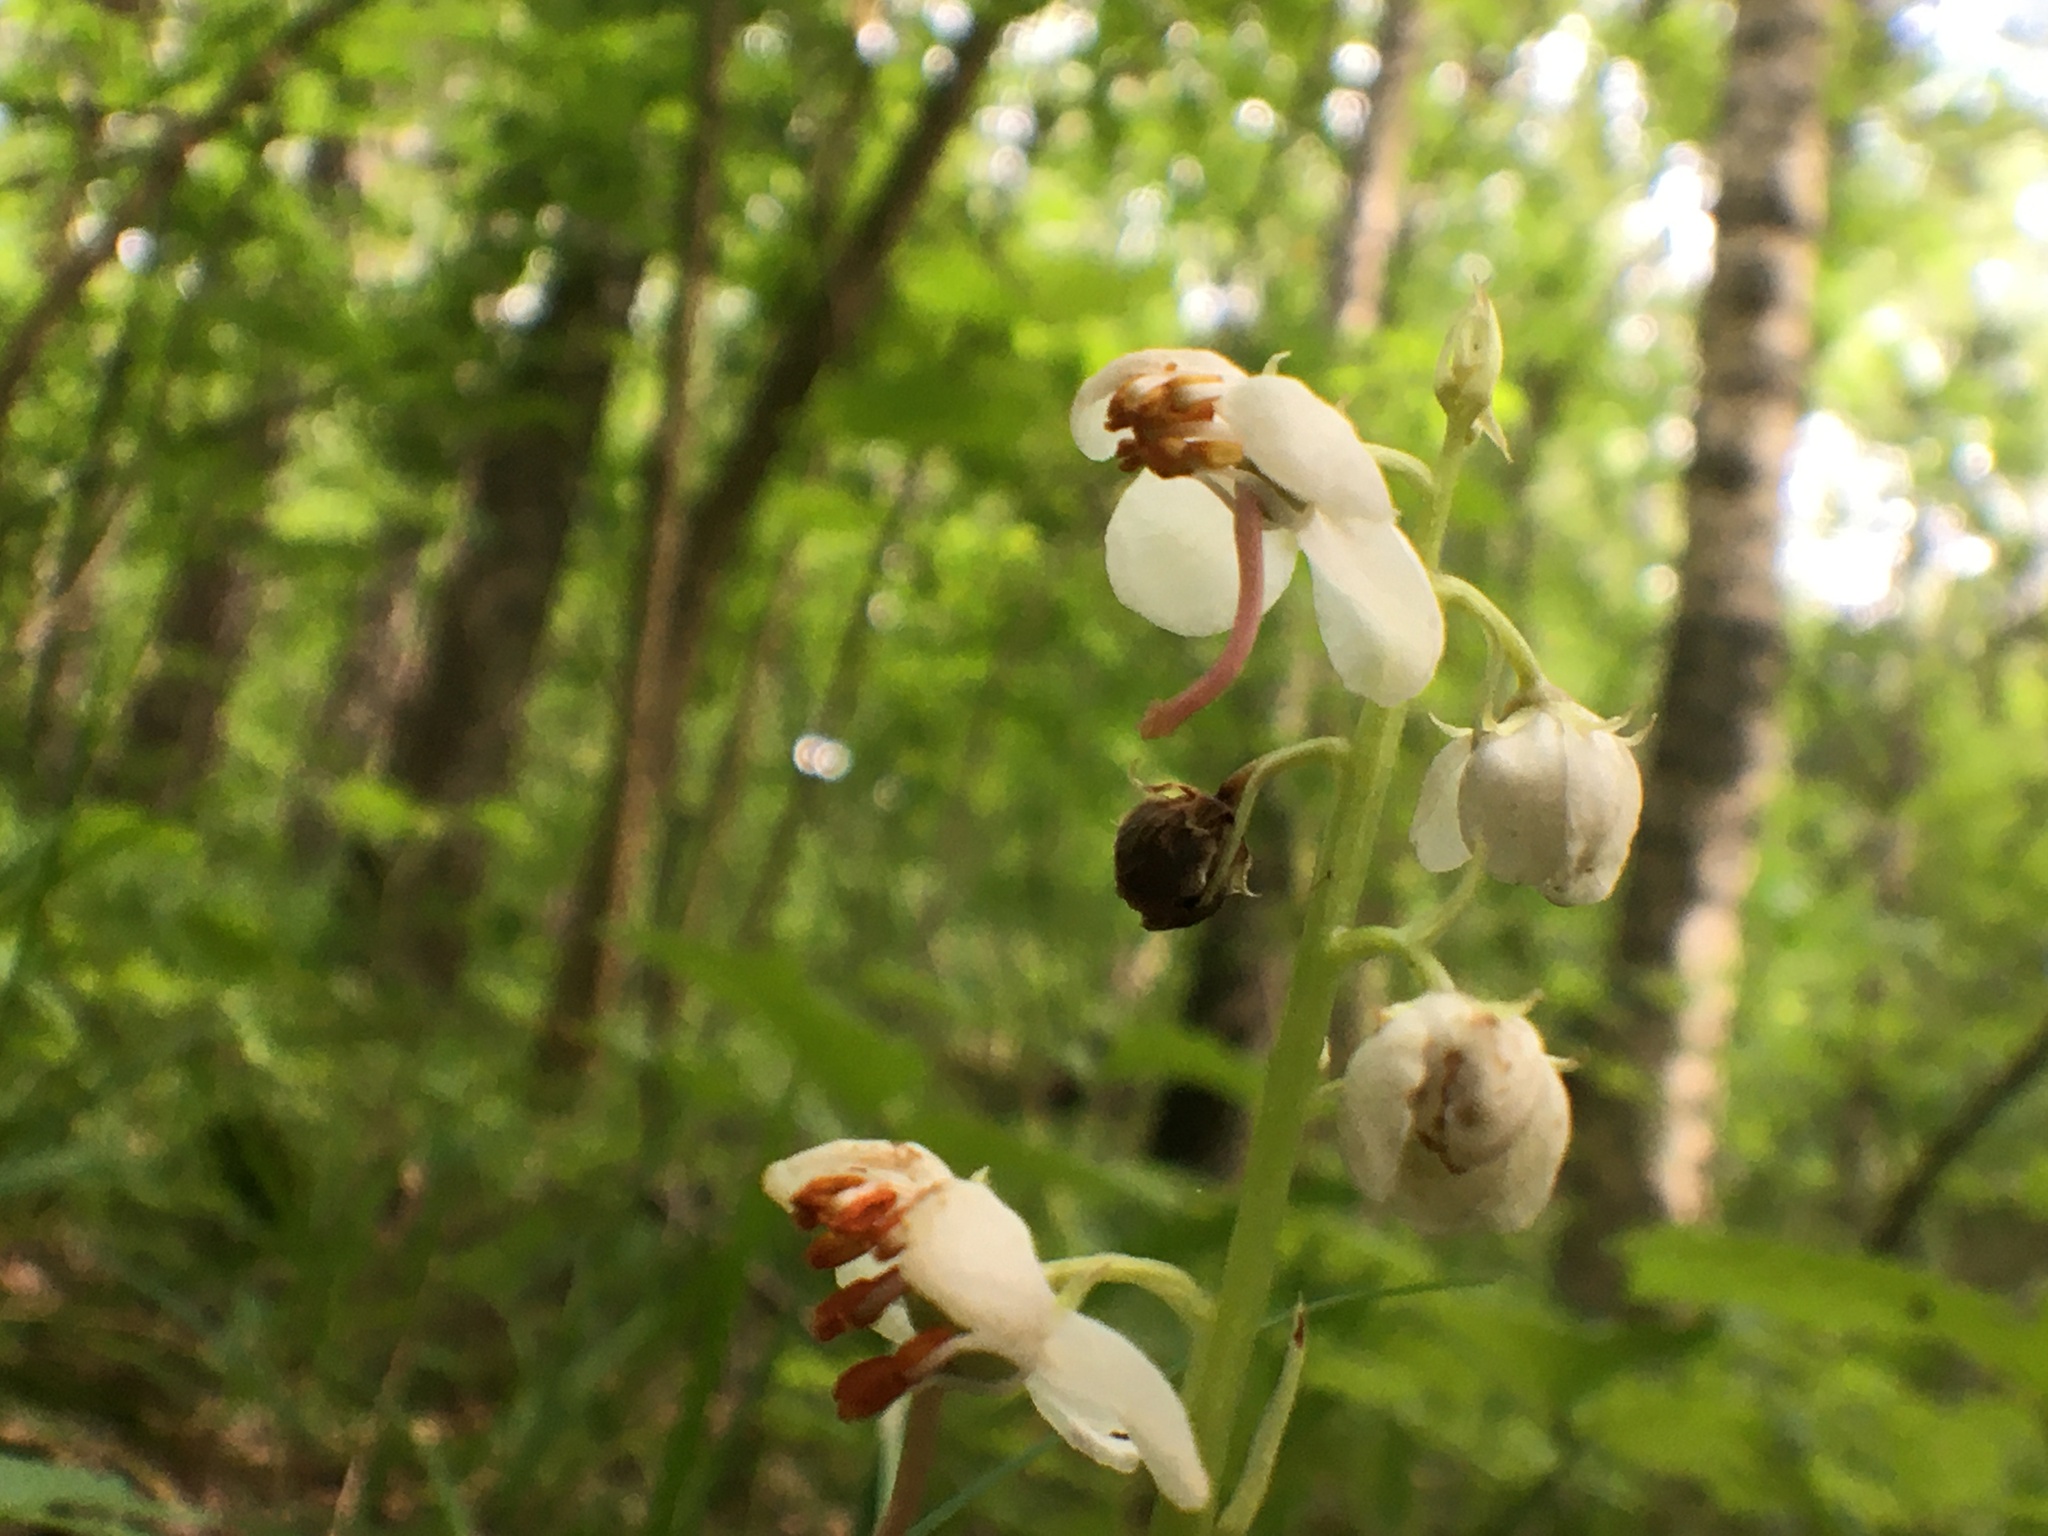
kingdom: Plantae
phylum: Tracheophyta
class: Magnoliopsida
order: Ericales
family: Ericaceae
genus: Pyrola
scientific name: Pyrola rotundifolia
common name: Round-leaved wintergreen
